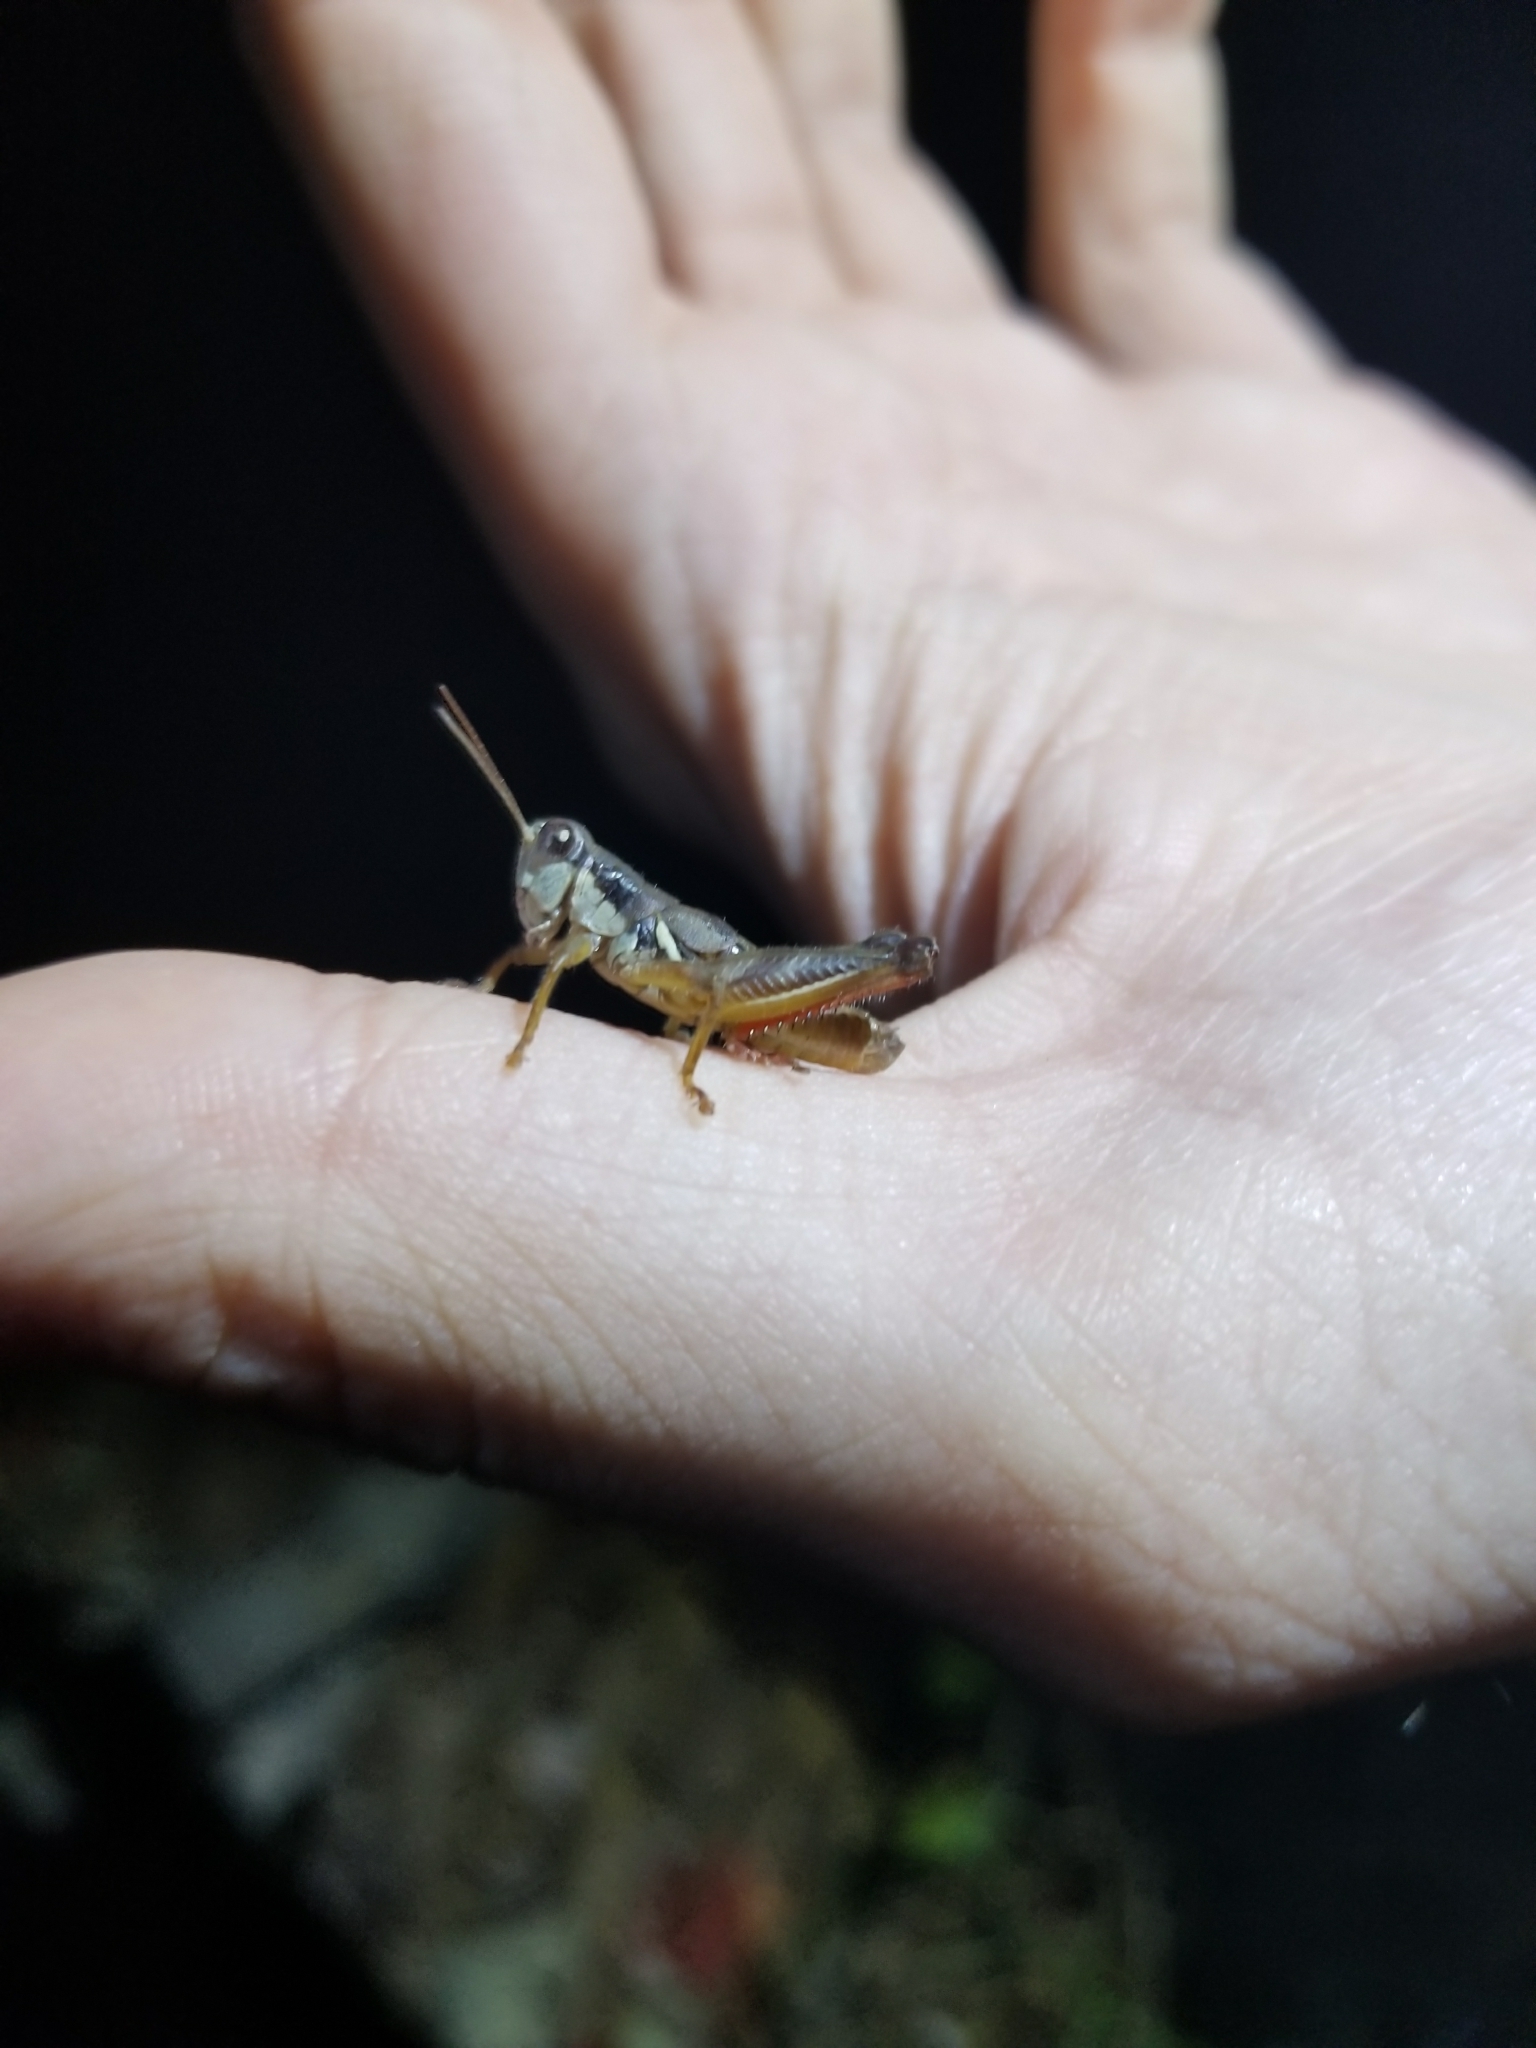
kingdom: Animalia
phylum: Arthropoda
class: Insecta
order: Orthoptera
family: Acrididae
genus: Melanoplus
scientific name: Melanoplus celatus
